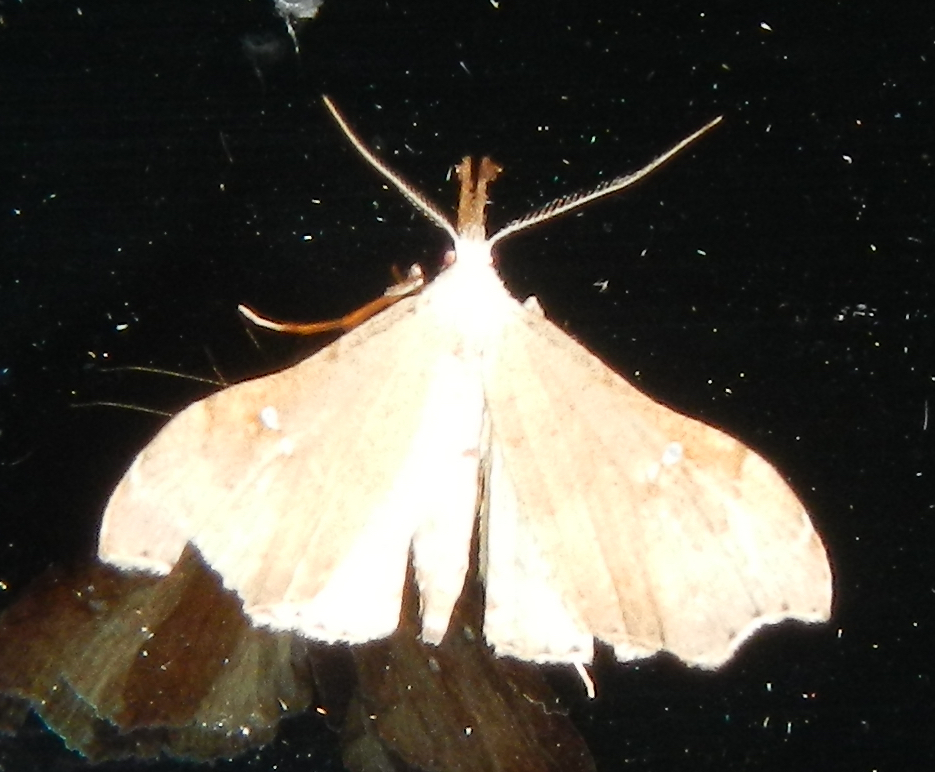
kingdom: Animalia
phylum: Arthropoda
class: Insecta
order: Lepidoptera
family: Erebidae
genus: Redectis
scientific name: Redectis vitrea
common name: White-spotted redectis
